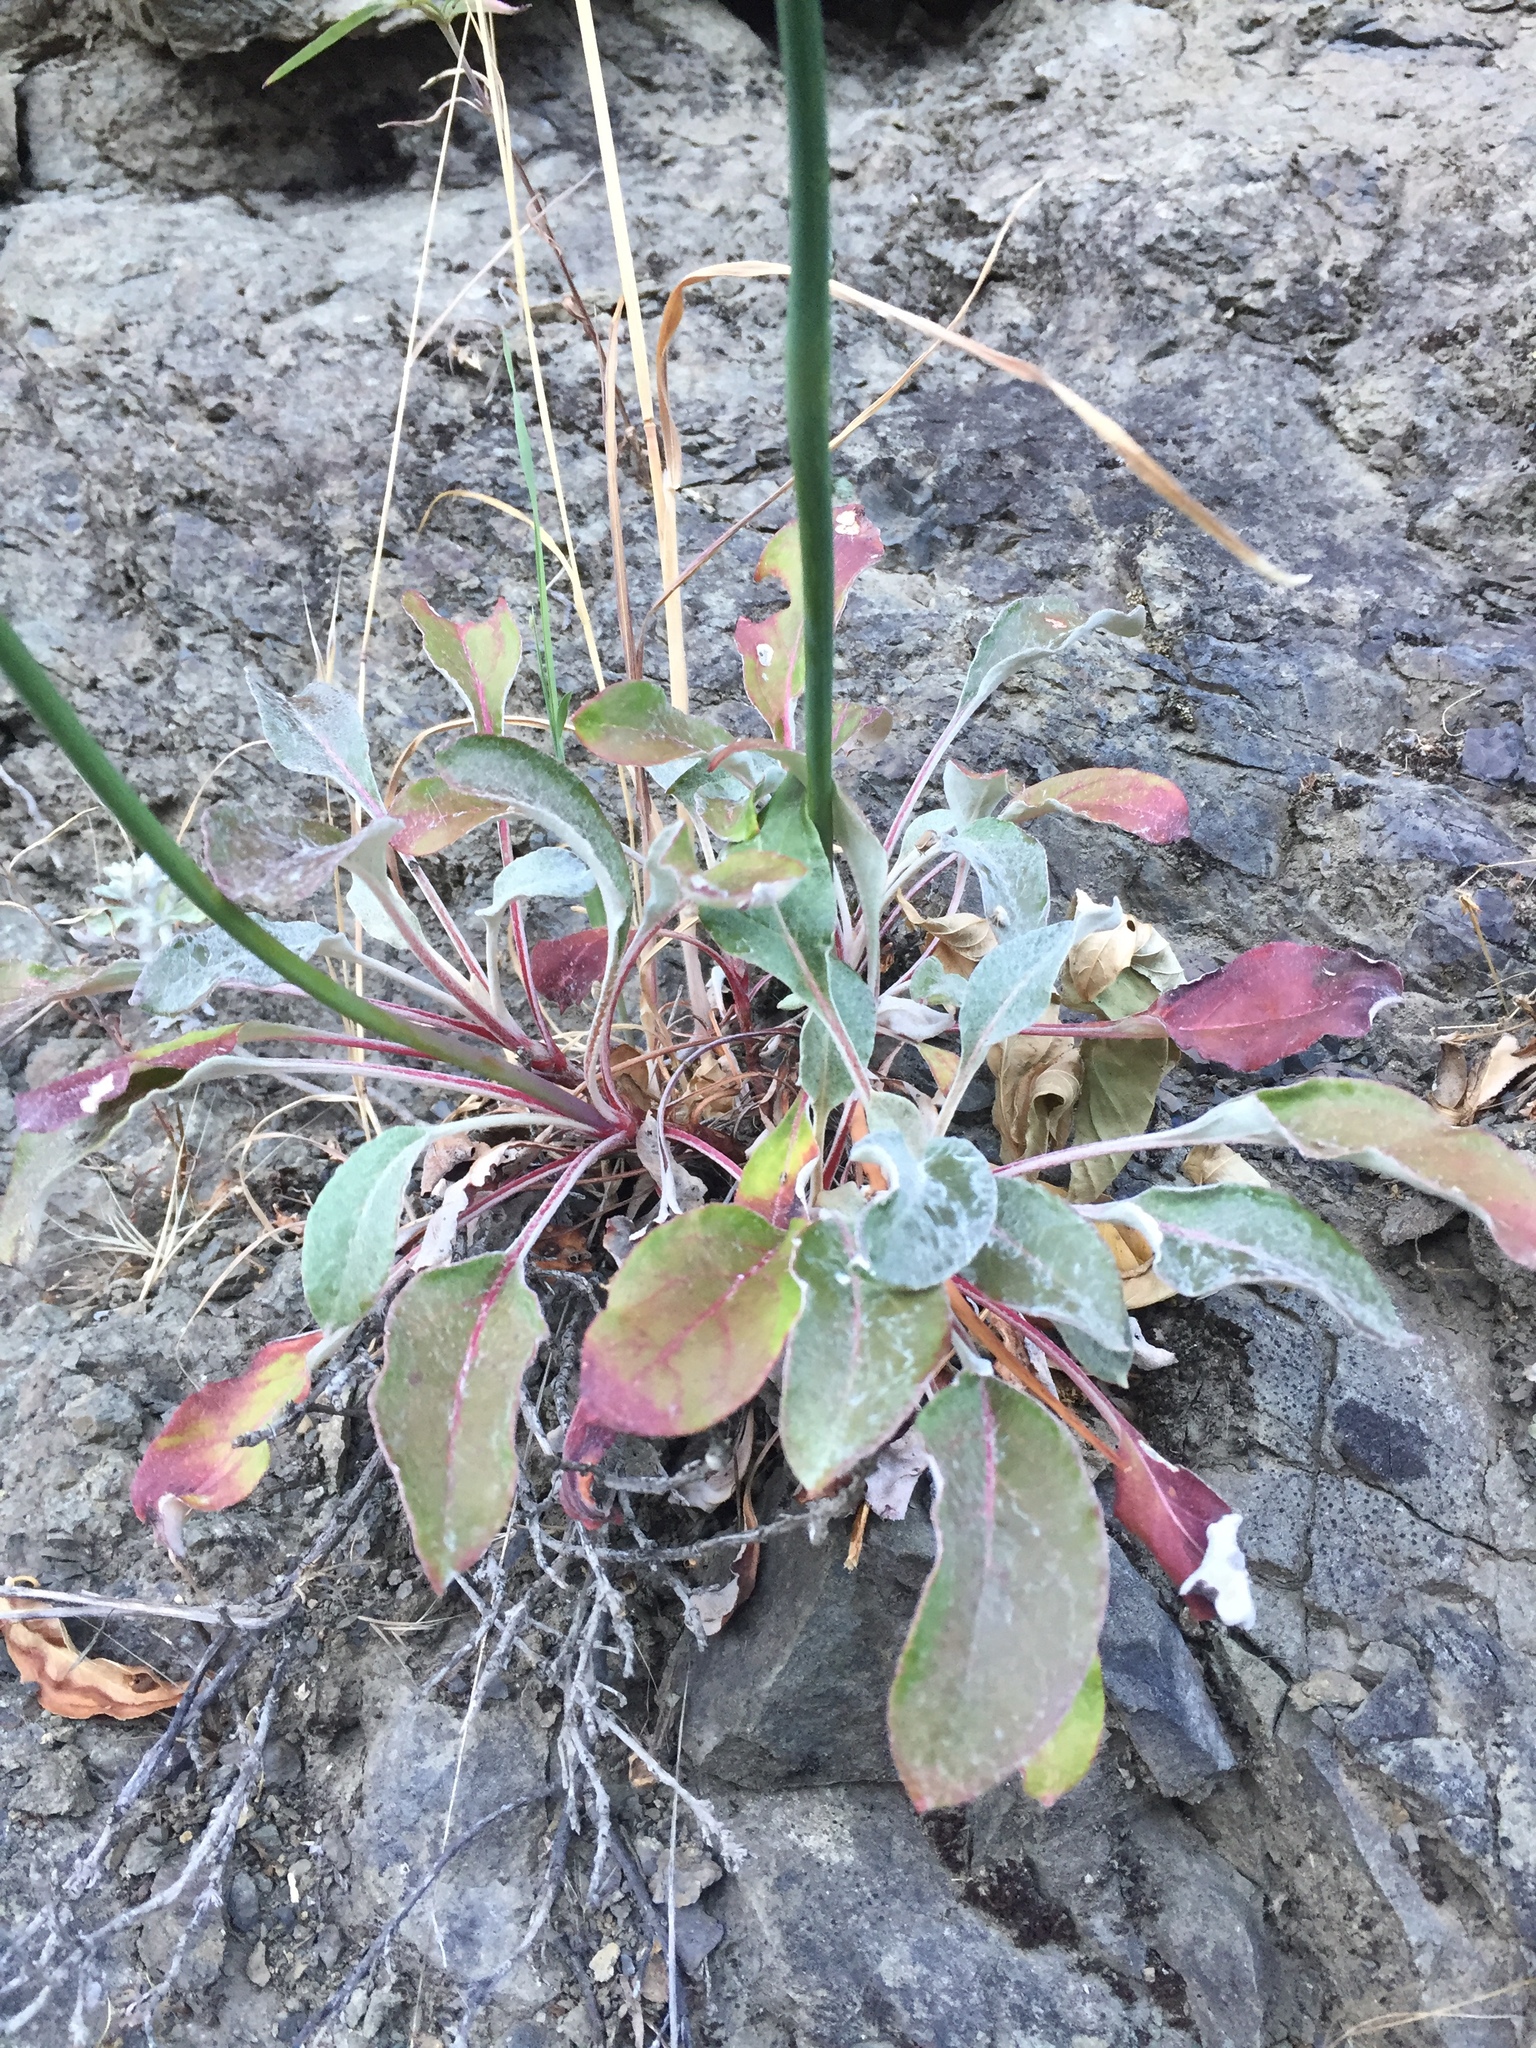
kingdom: Plantae
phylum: Tracheophyta
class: Magnoliopsida
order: Caryophyllales
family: Polygonaceae
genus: Eriogonum
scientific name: Eriogonum nudum
